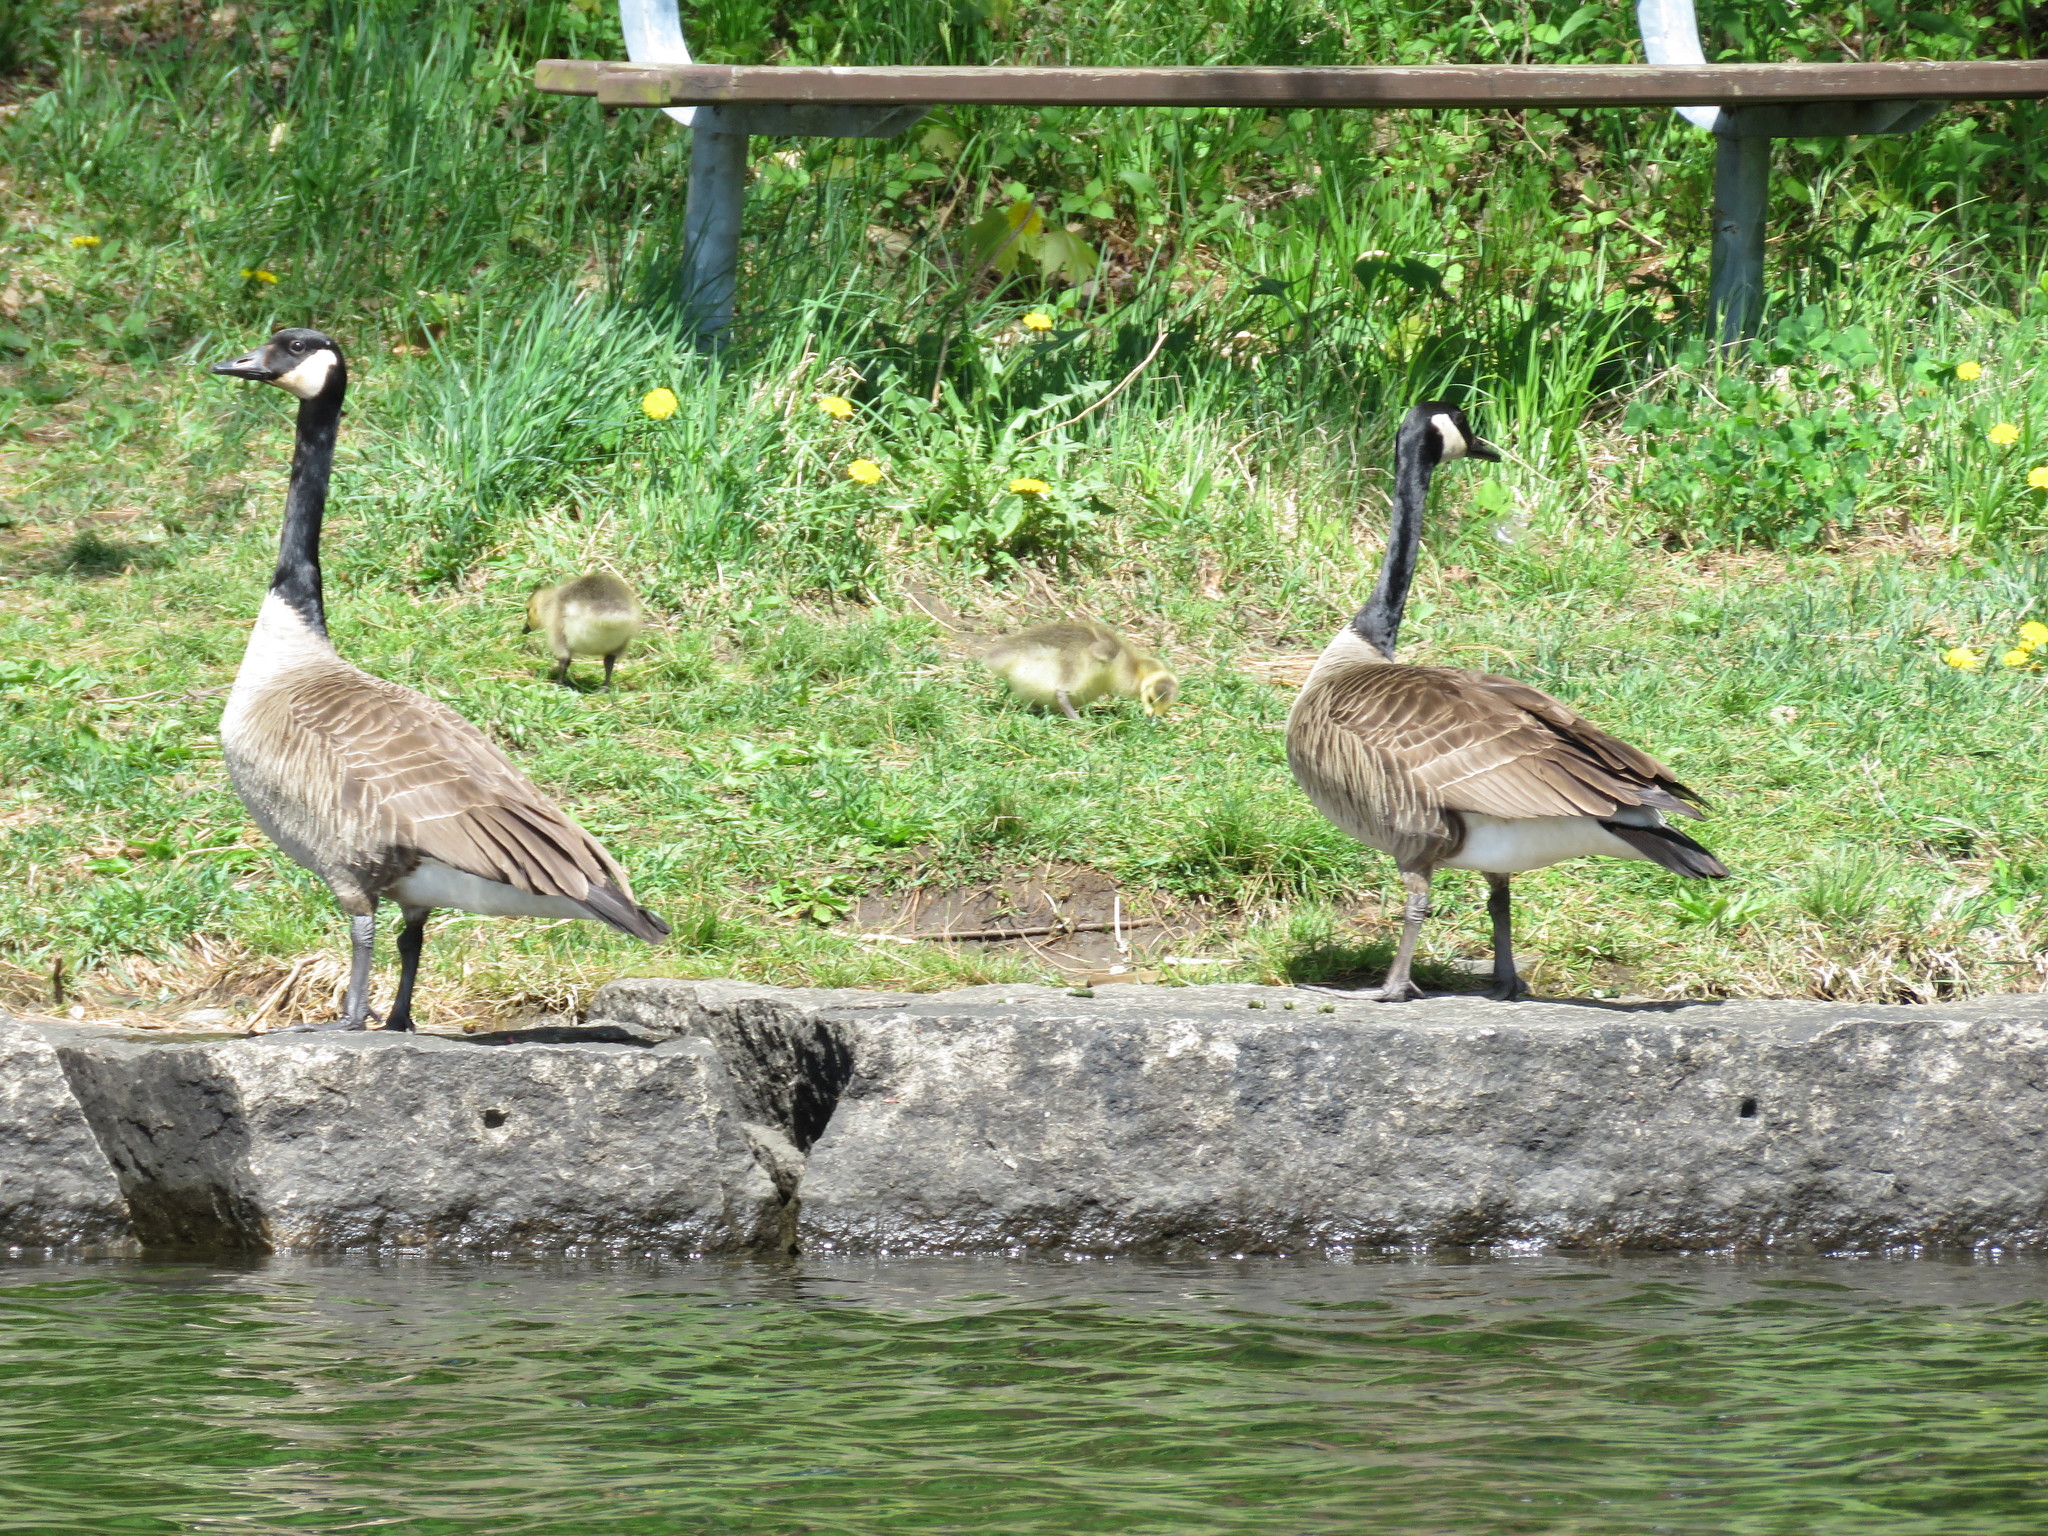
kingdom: Animalia
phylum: Chordata
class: Aves
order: Anseriformes
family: Anatidae
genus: Branta
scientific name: Branta canadensis
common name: Canada goose
